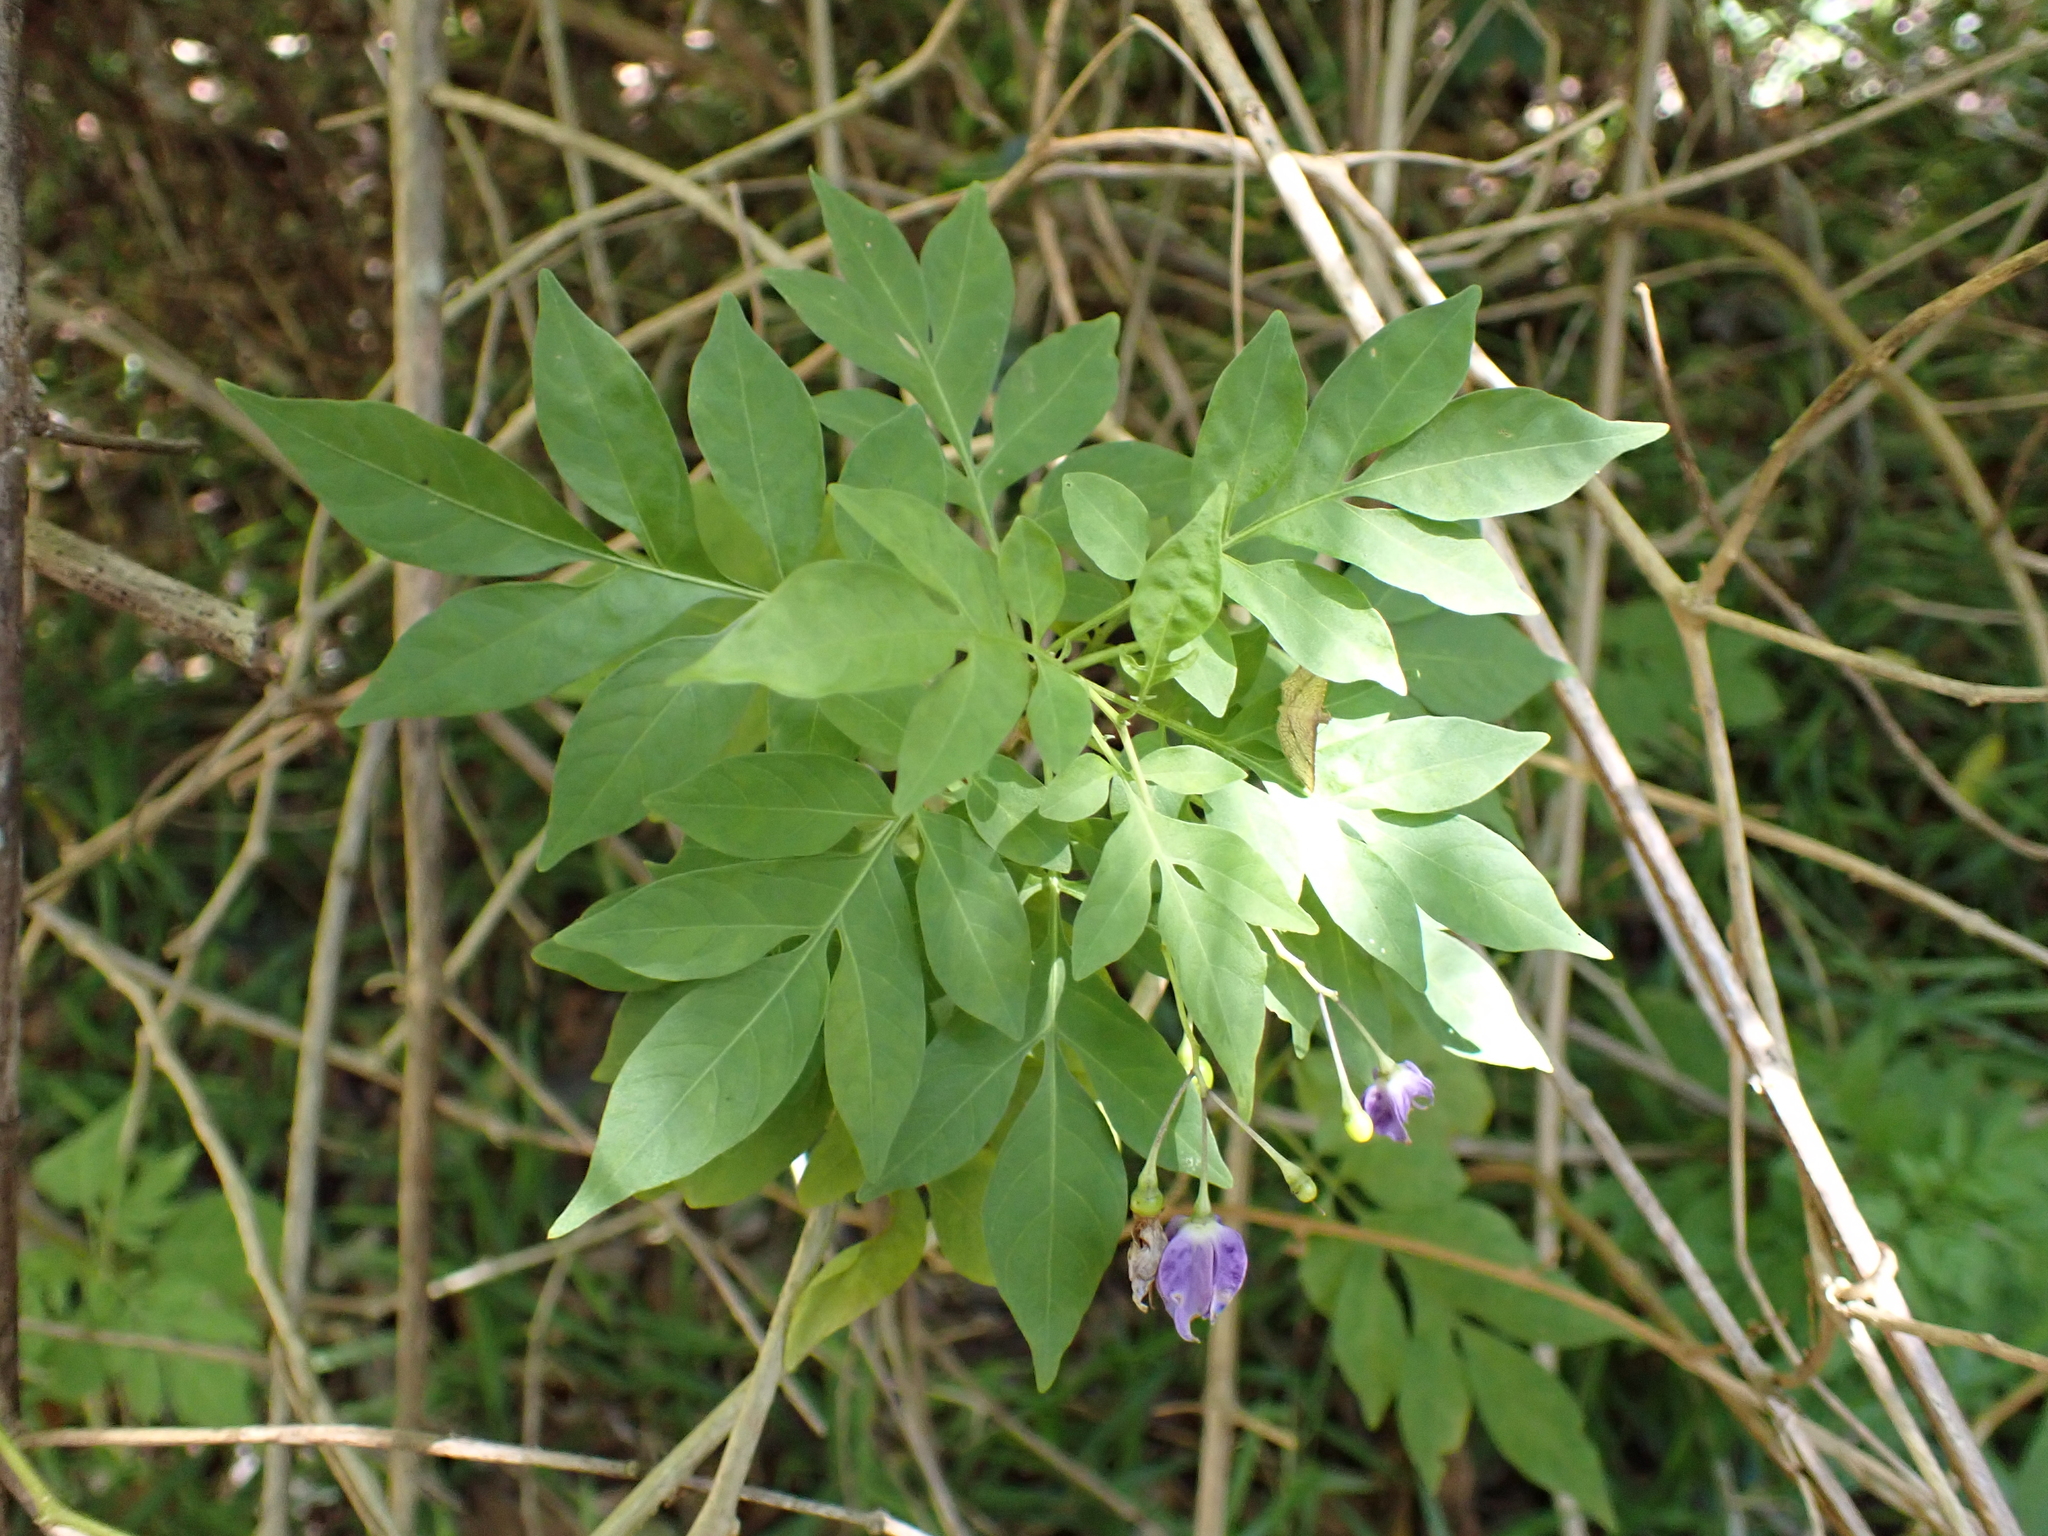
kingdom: Plantae
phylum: Tracheophyta
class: Magnoliopsida
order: Solanales
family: Solanaceae
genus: Solanum
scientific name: Solanum seaforthianum
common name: Brazilian nightshade
